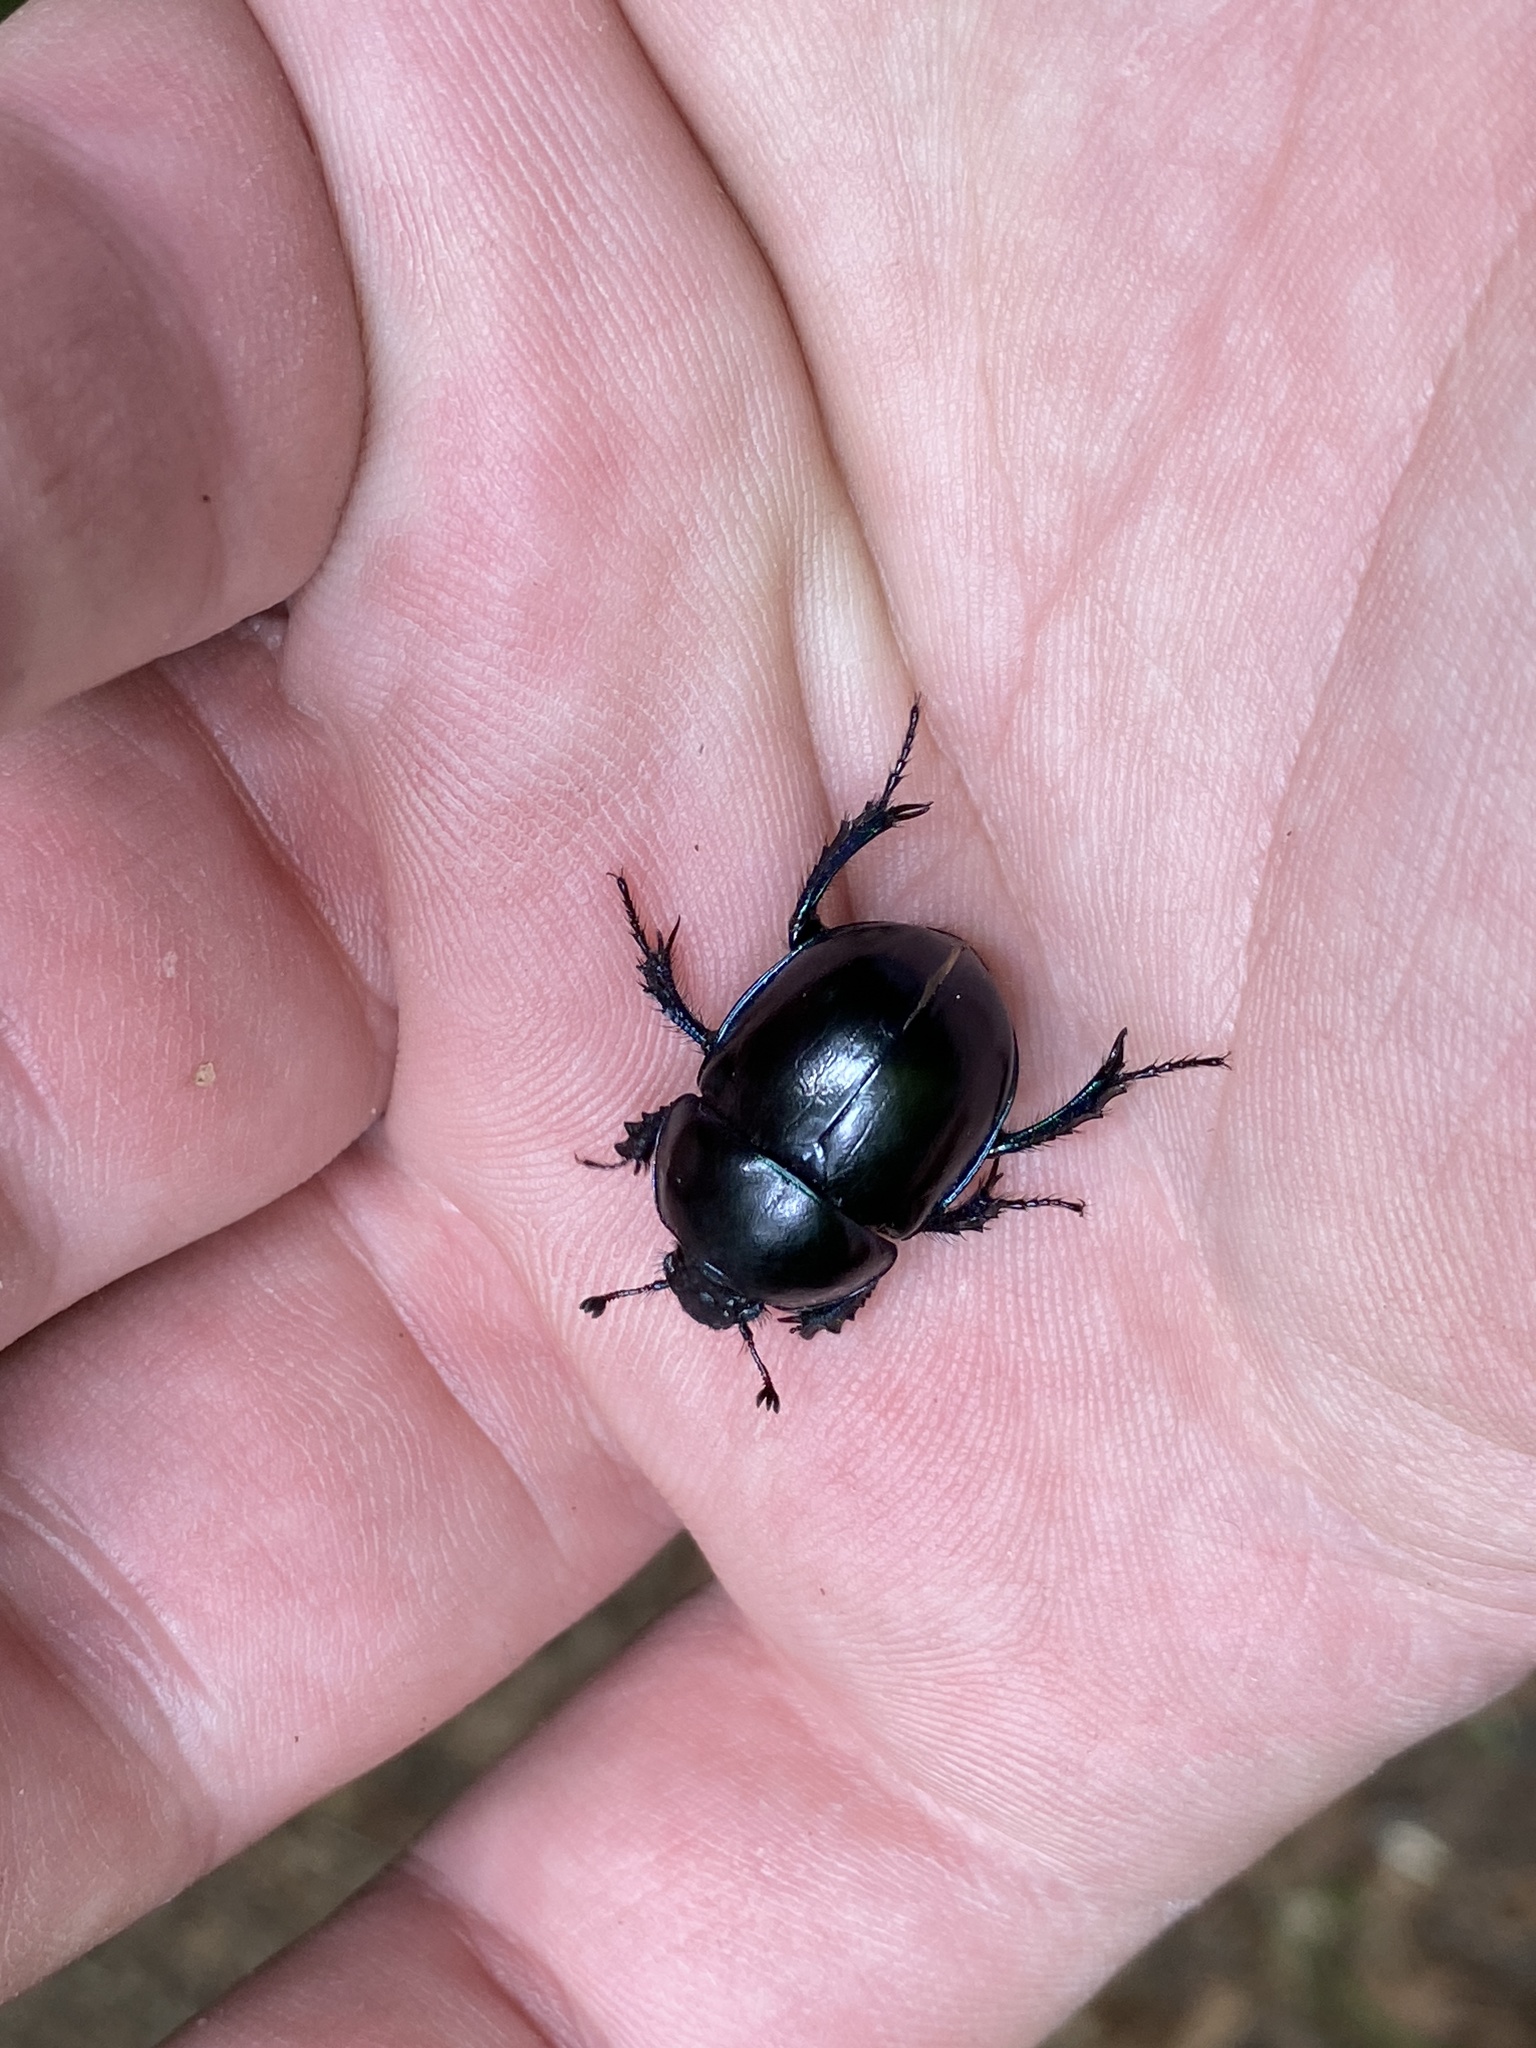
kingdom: Animalia
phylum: Arthropoda
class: Insecta
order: Coleoptera
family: Geotrupidae
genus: Trypocopris
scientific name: Trypocopris vernalis
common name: Spring dumbledor
